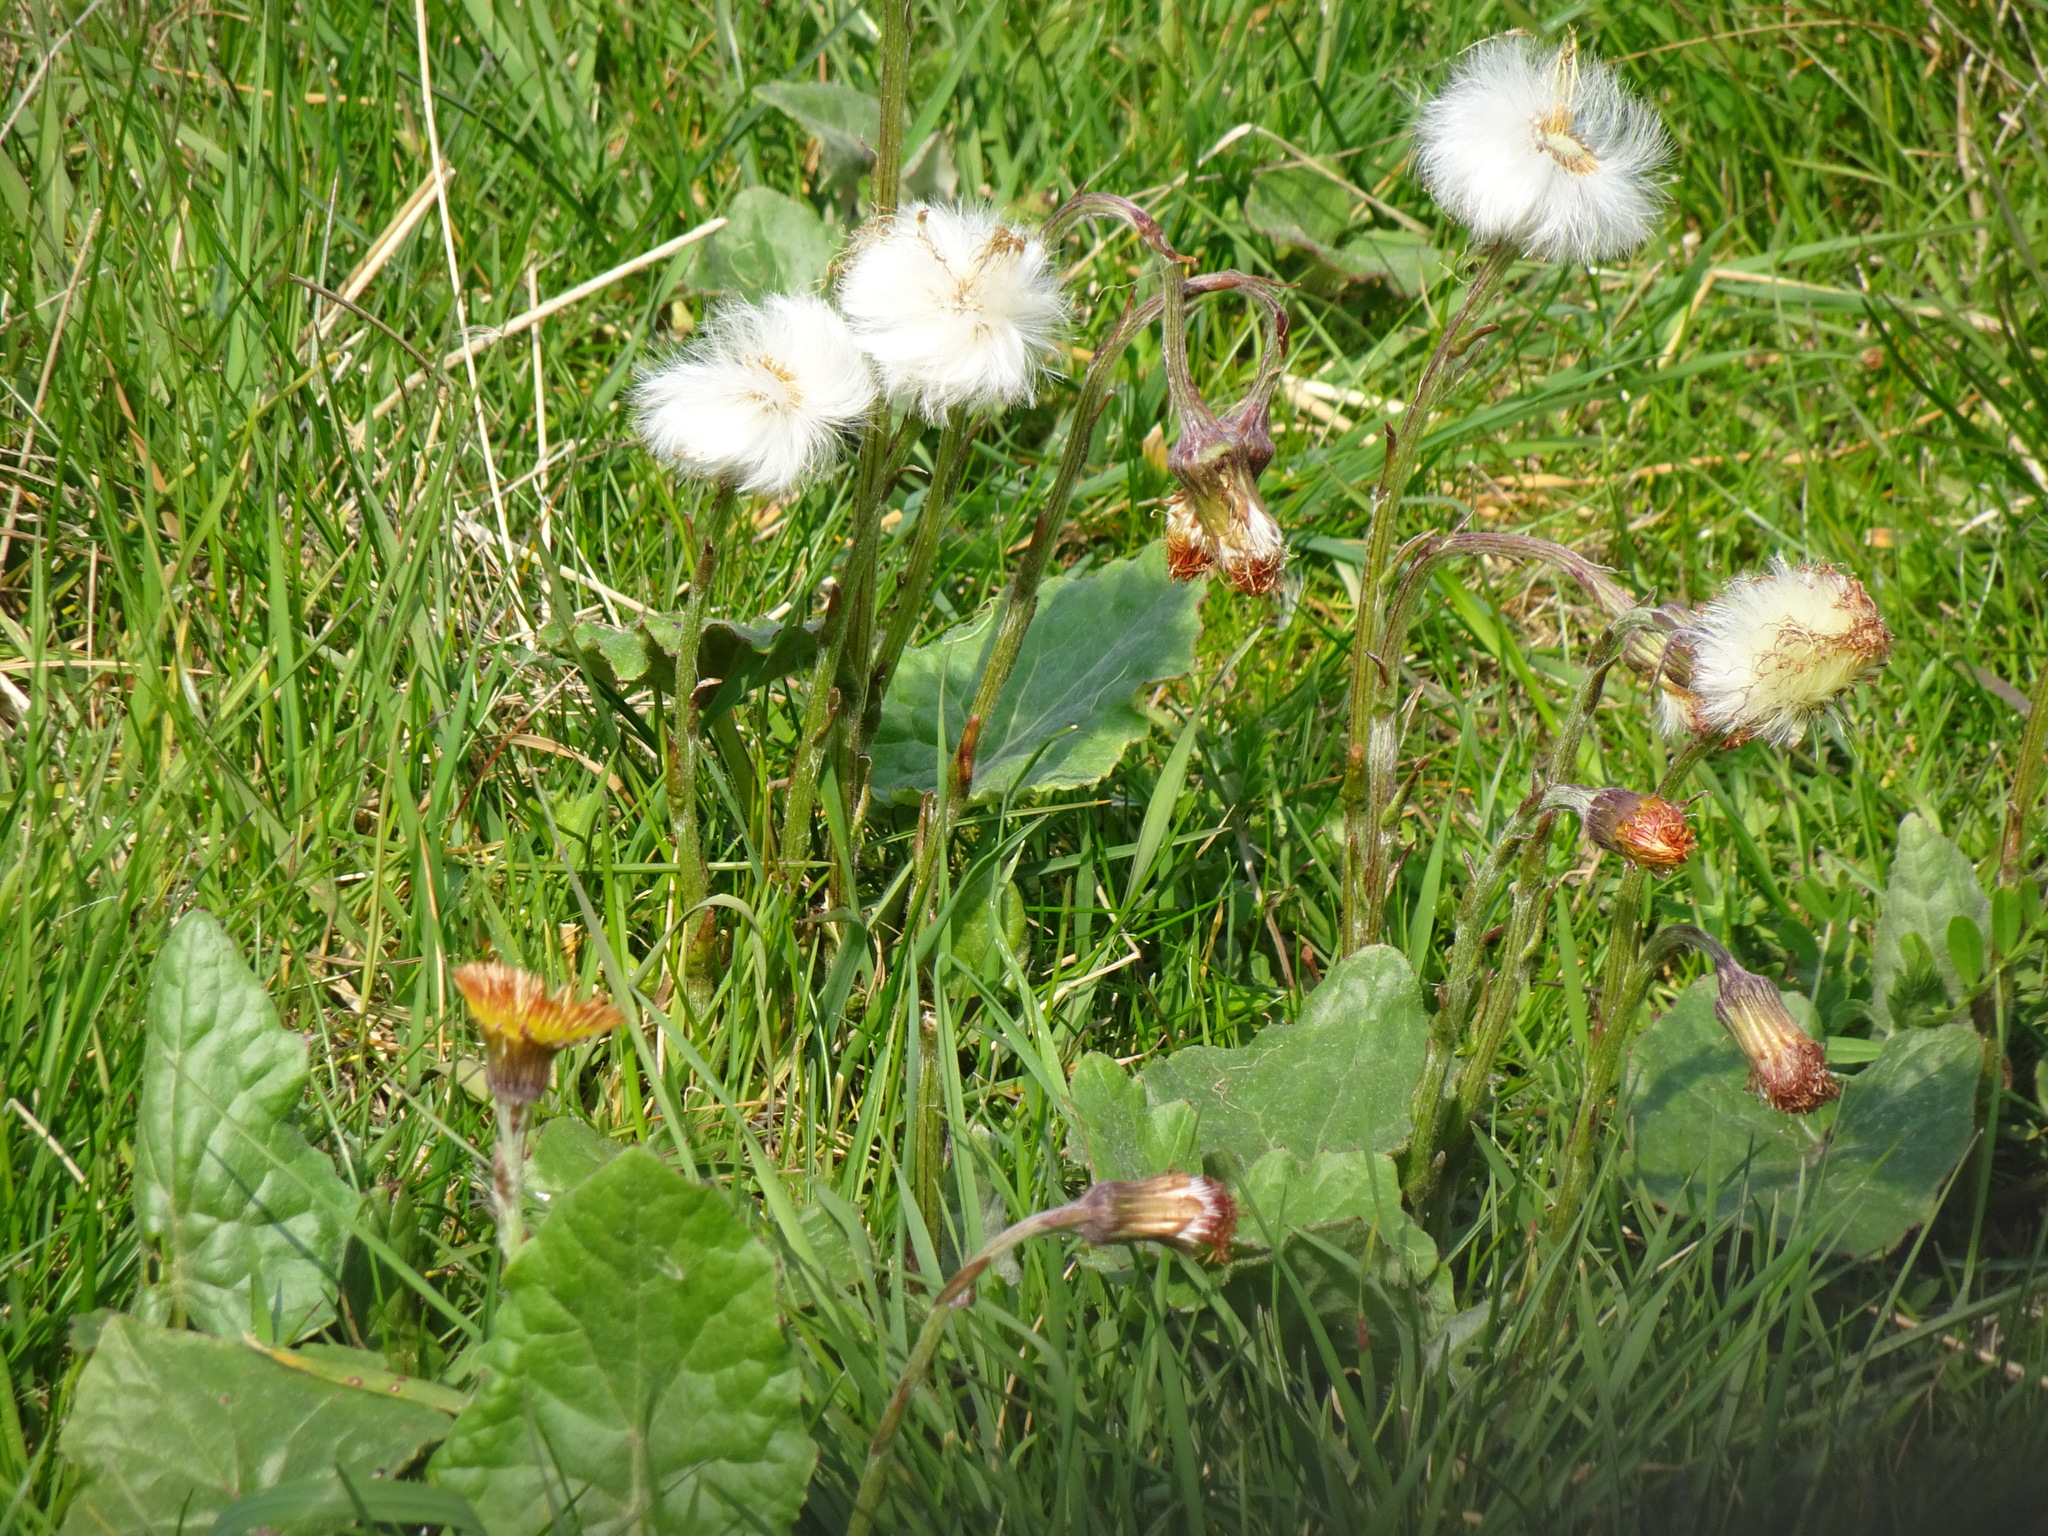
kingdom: Plantae
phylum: Tracheophyta
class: Magnoliopsida
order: Asterales
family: Asteraceae
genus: Tussilago
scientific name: Tussilago farfara
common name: Coltsfoot
